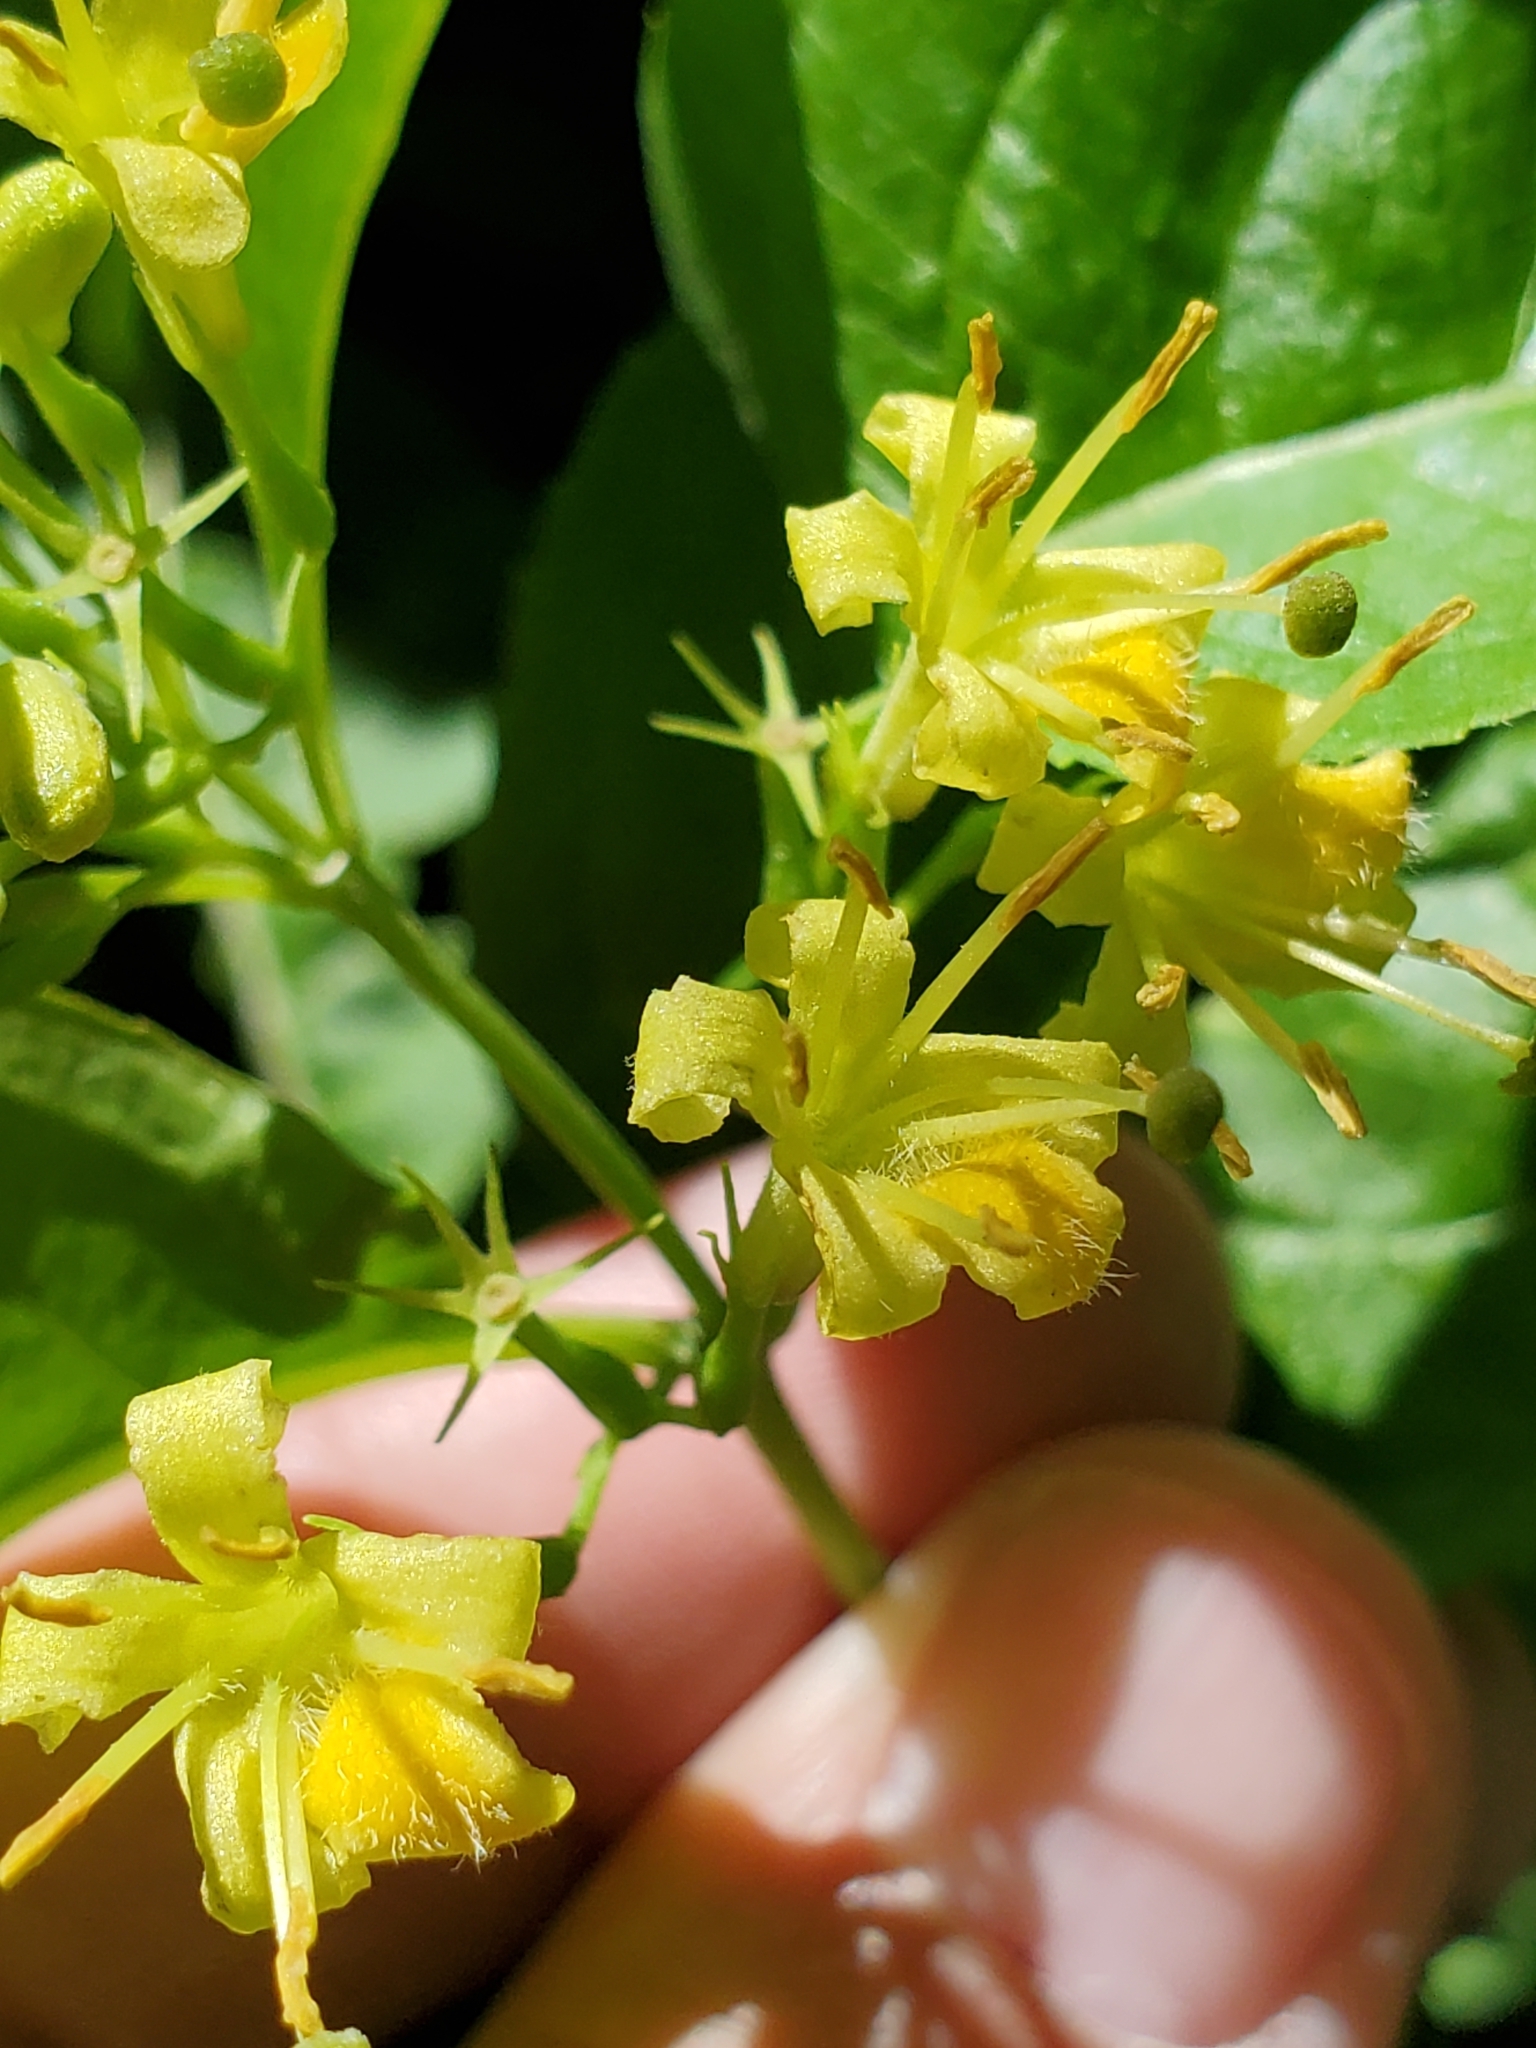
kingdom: Plantae
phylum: Tracheophyta
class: Magnoliopsida
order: Dipsacales
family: Caprifoliaceae
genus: Diervilla
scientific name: Diervilla lonicera
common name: Bush-honeysuckle
